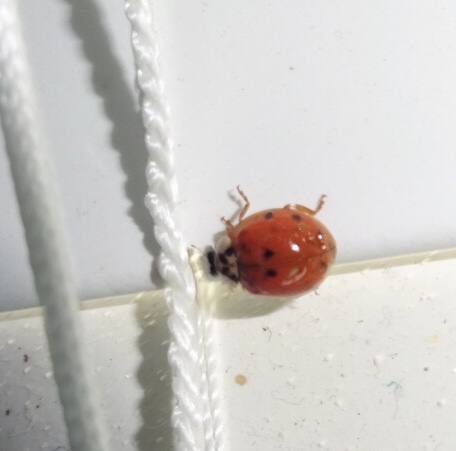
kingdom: Animalia
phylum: Arthropoda
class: Insecta
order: Coleoptera
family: Coccinellidae
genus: Harmonia
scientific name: Harmonia axyridis
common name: Harlequin ladybird
